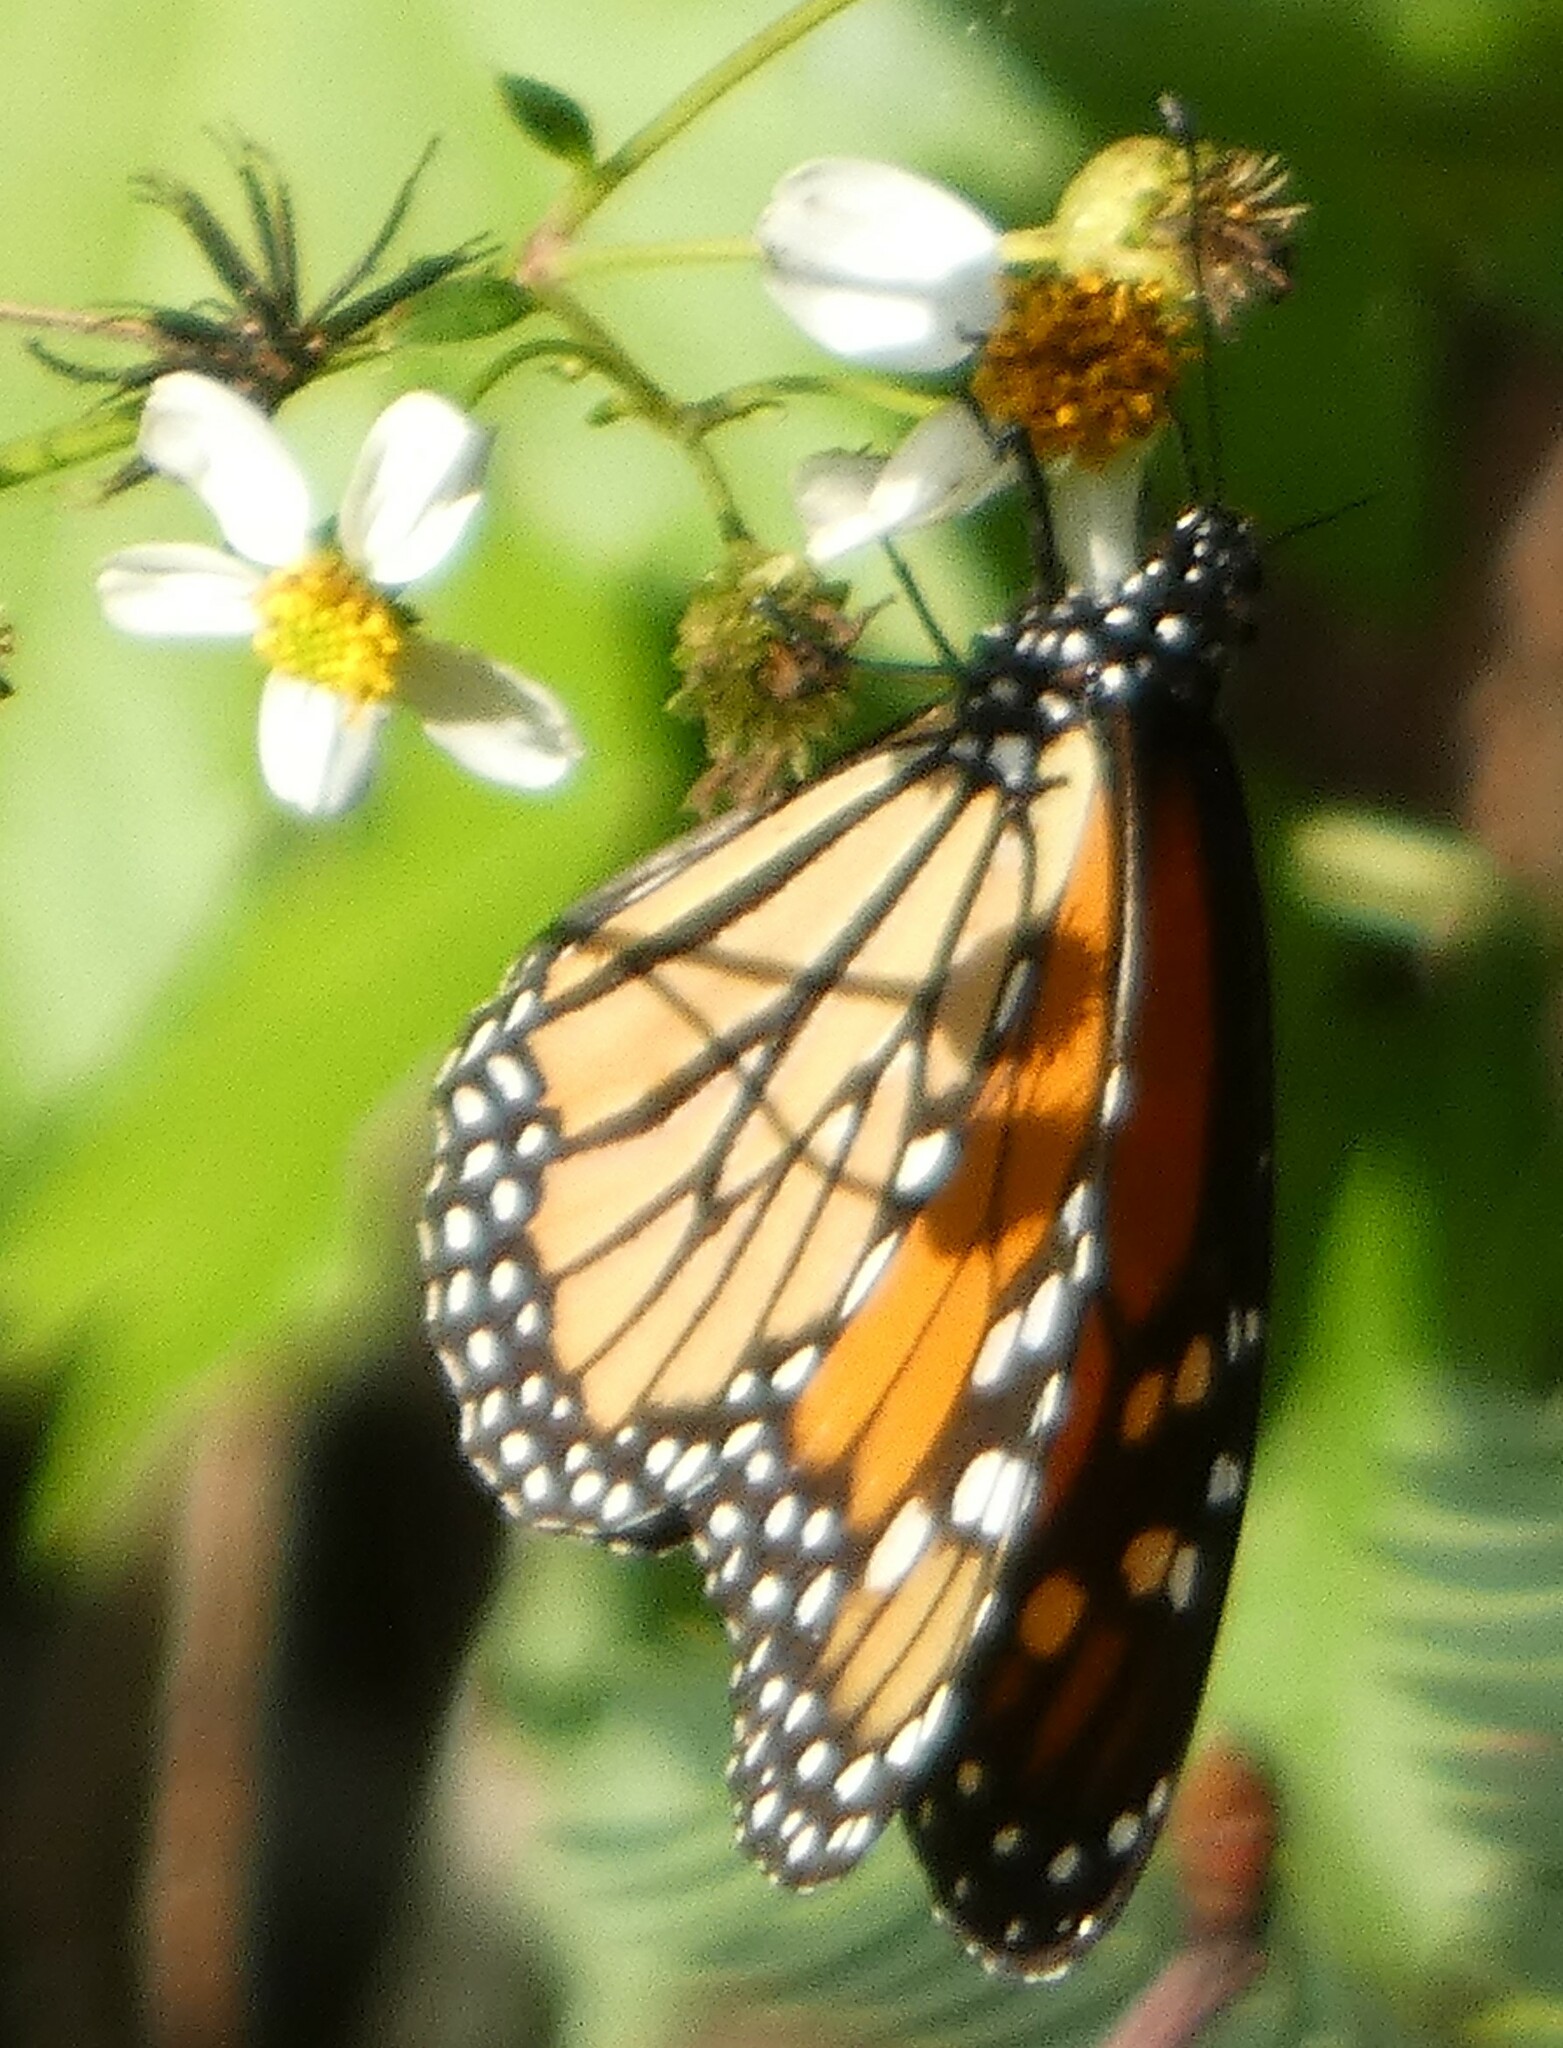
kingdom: Animalia
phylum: Arthropoda
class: Insecta
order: Lepidoptera
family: Nymphalidae
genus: Danaus
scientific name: Danaus plexippus
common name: Monarch
